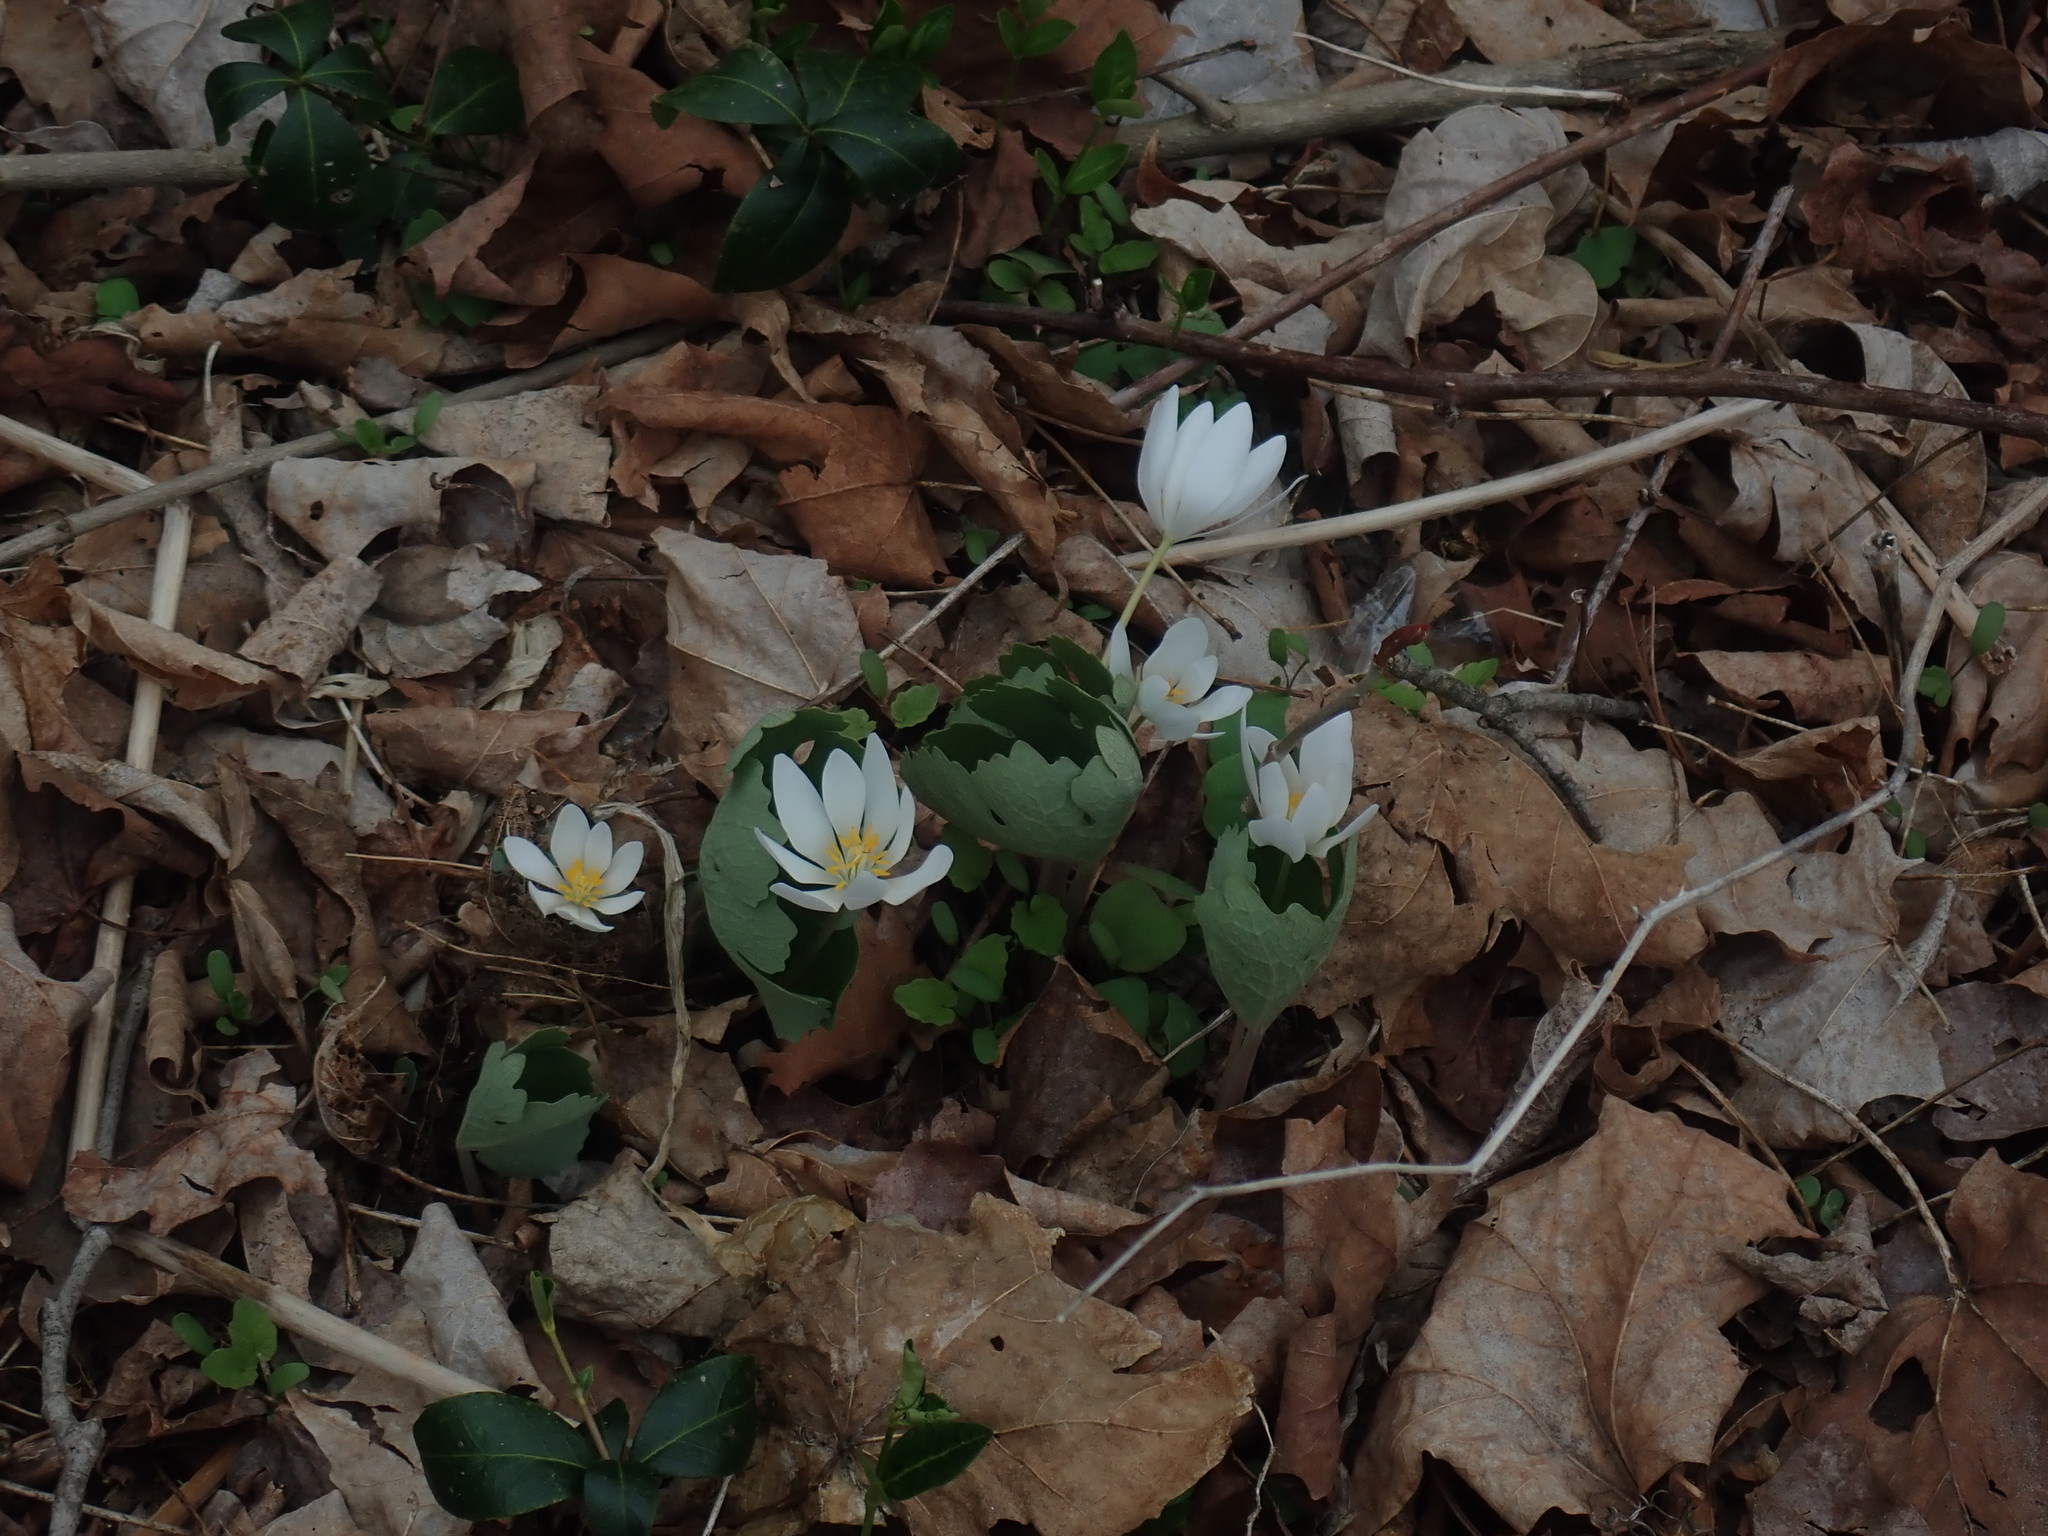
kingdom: Plantae
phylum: Tracheophyta
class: Magnoliopsida
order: Ranunculales
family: Papaveraceae
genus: Sanguinaria
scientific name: Sanguinaria canadensis
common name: Bloodroot
